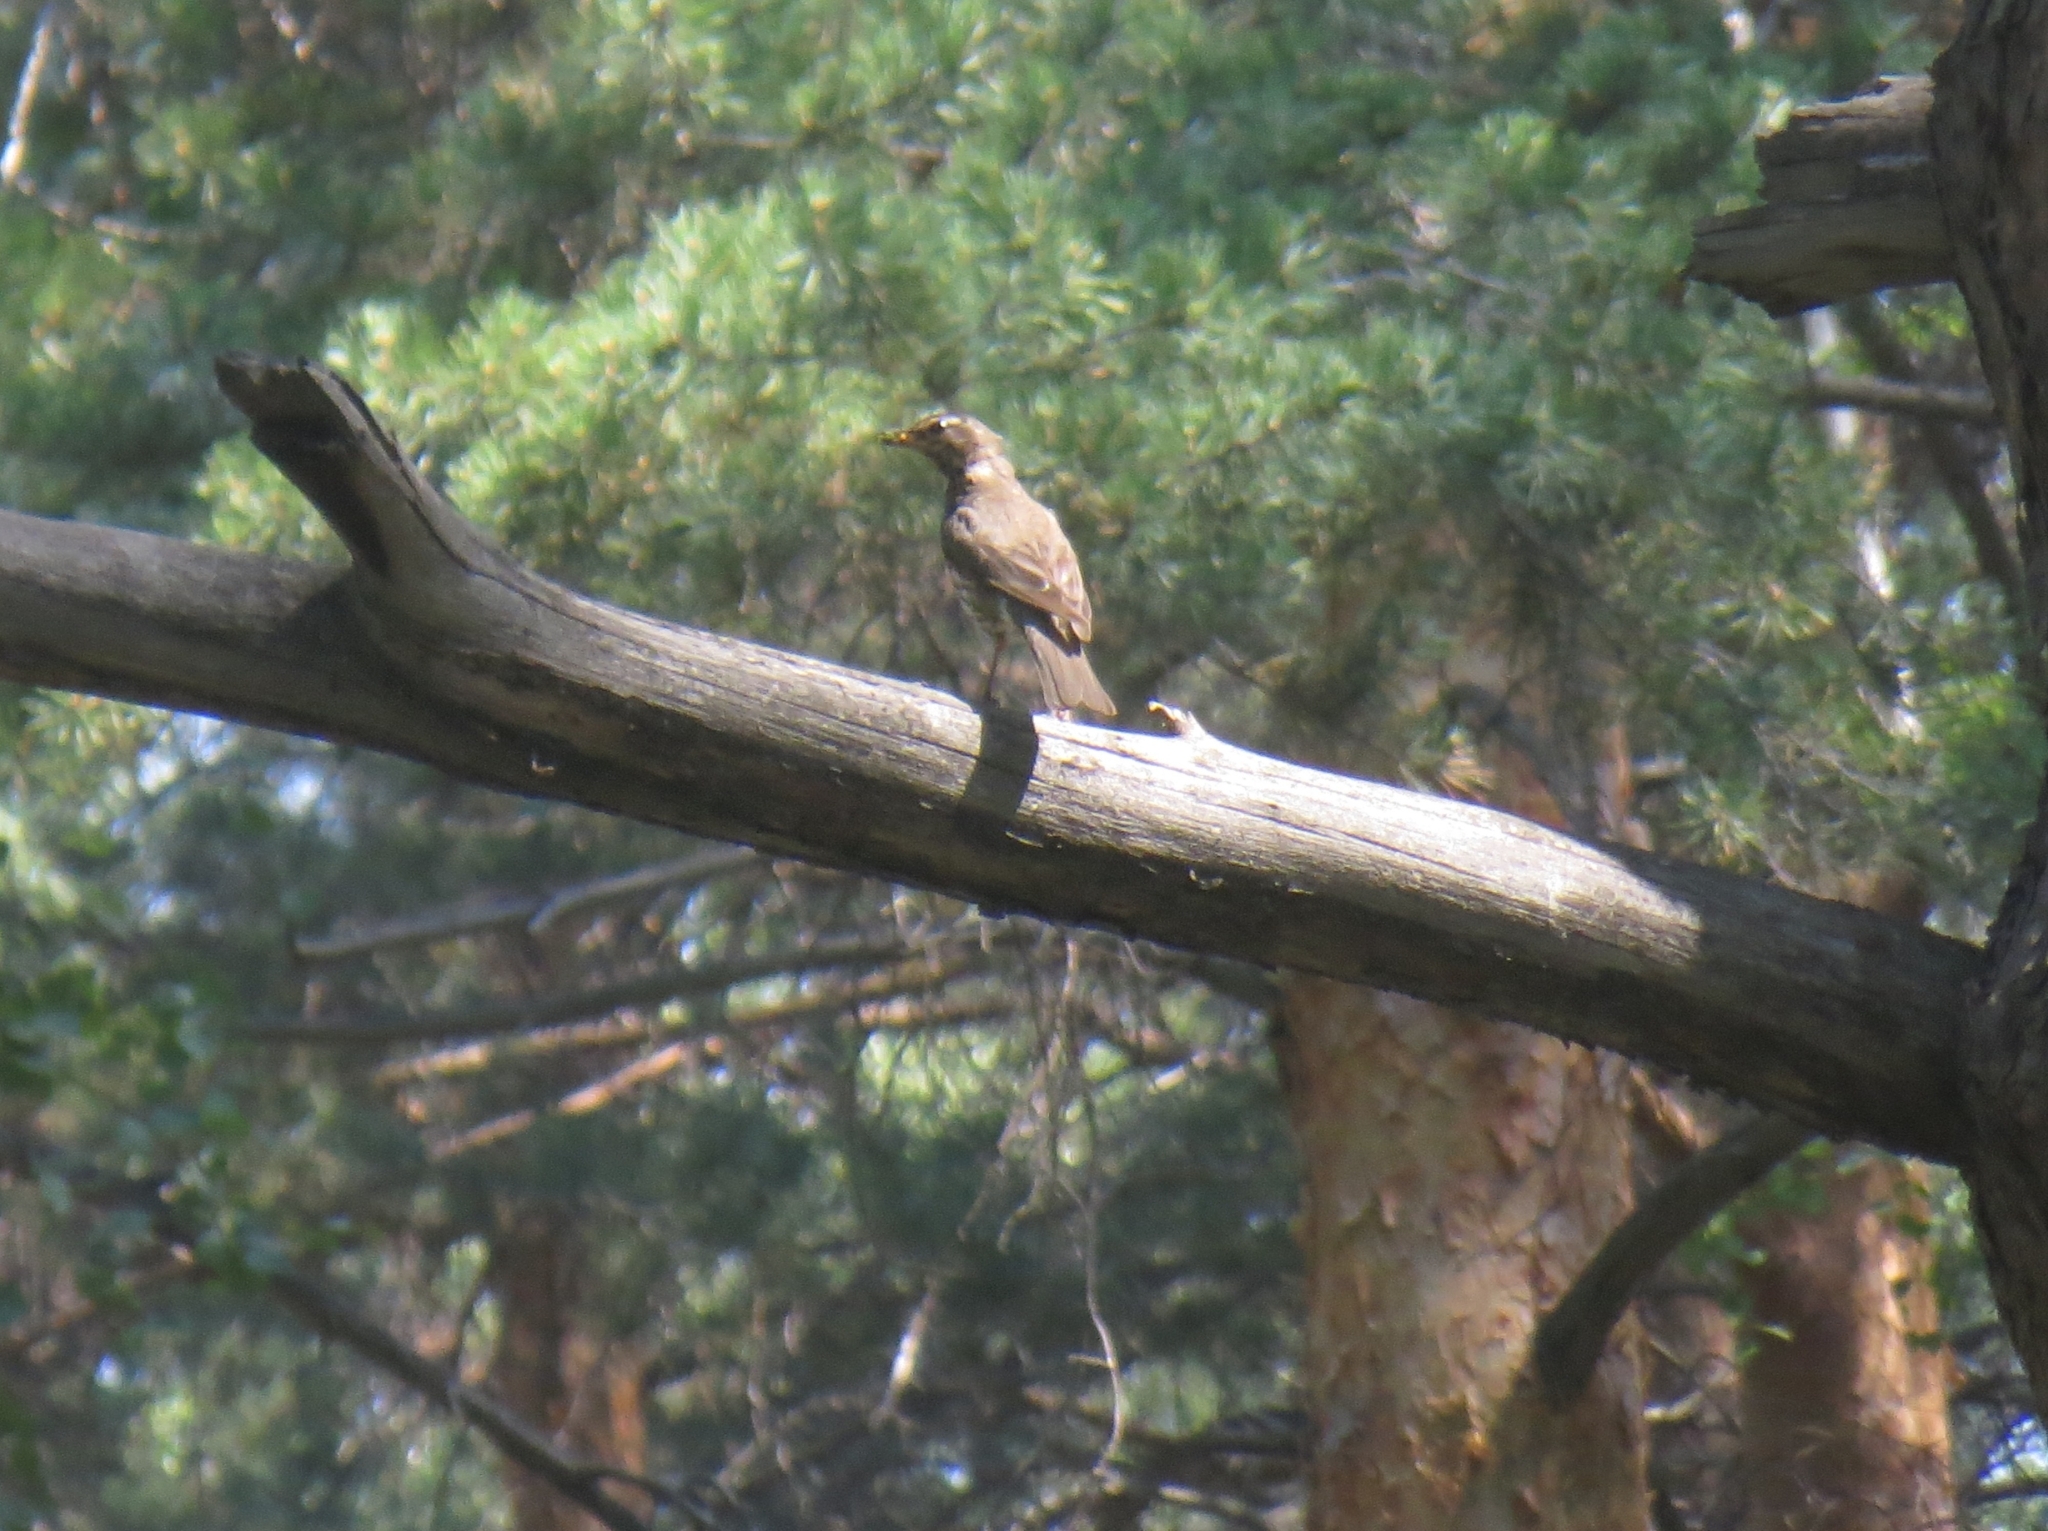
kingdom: Animalia
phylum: Chordata
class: Aves
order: Passeriformes
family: Turdidae
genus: Turdus
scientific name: Turdus iliacus
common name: Redwing
